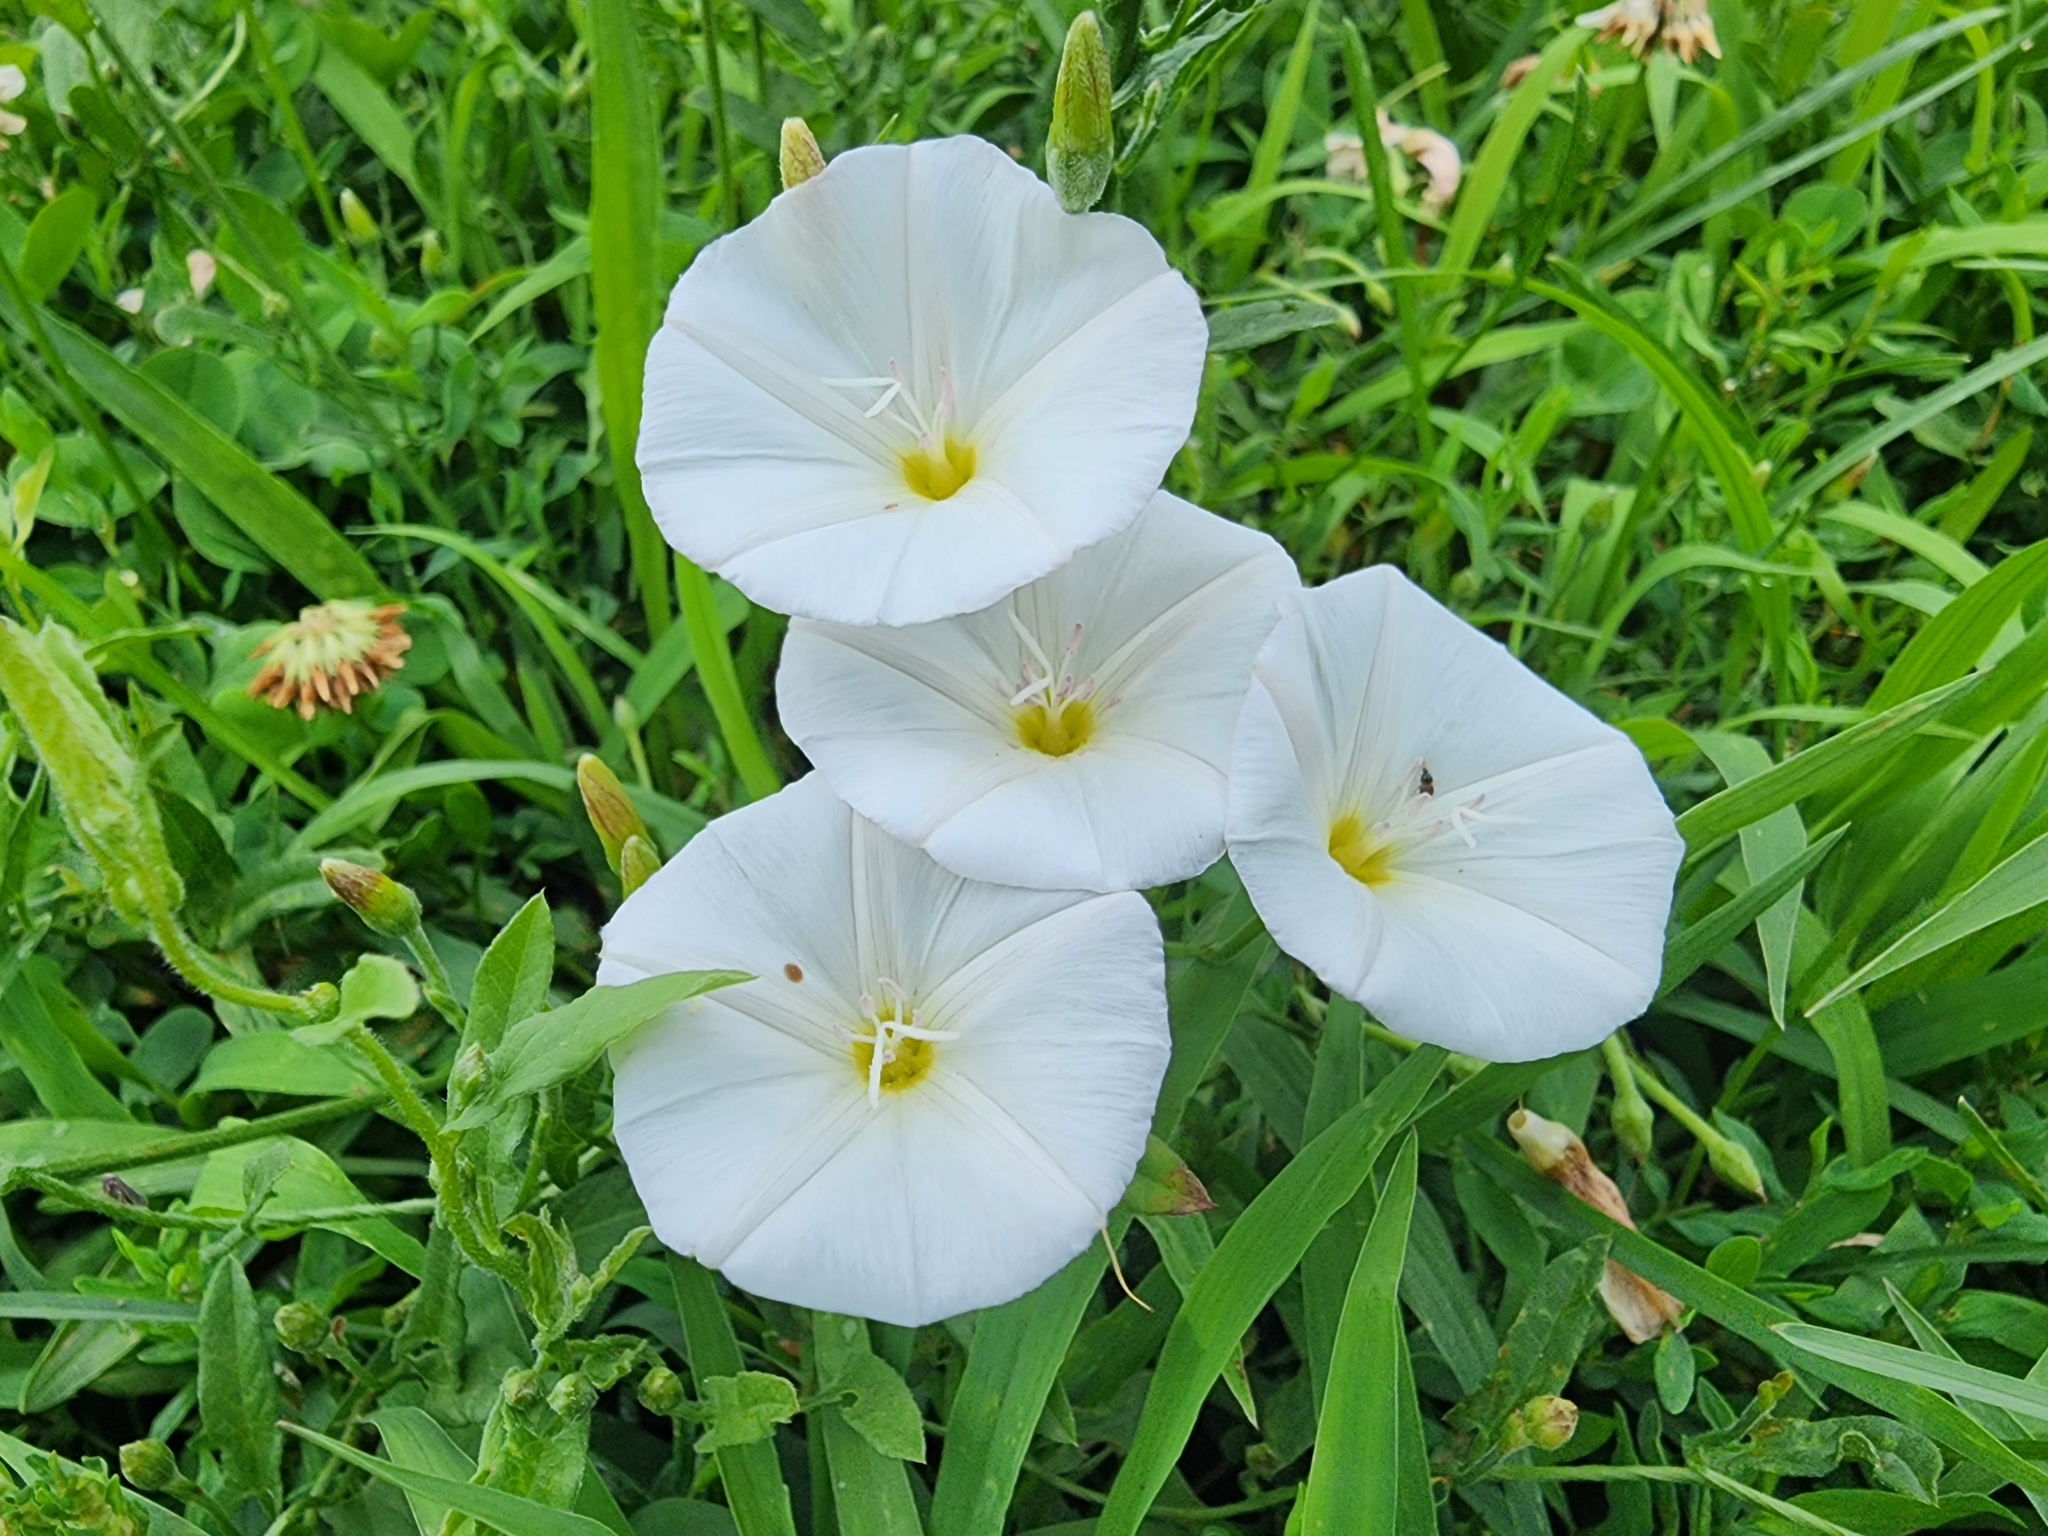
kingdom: Plantae
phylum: Tracheophyta
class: Magnoliopsida
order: Solanales
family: Convolvulaceae
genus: Convolvulus
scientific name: Convolvulus arvensis
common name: Field bindweed
